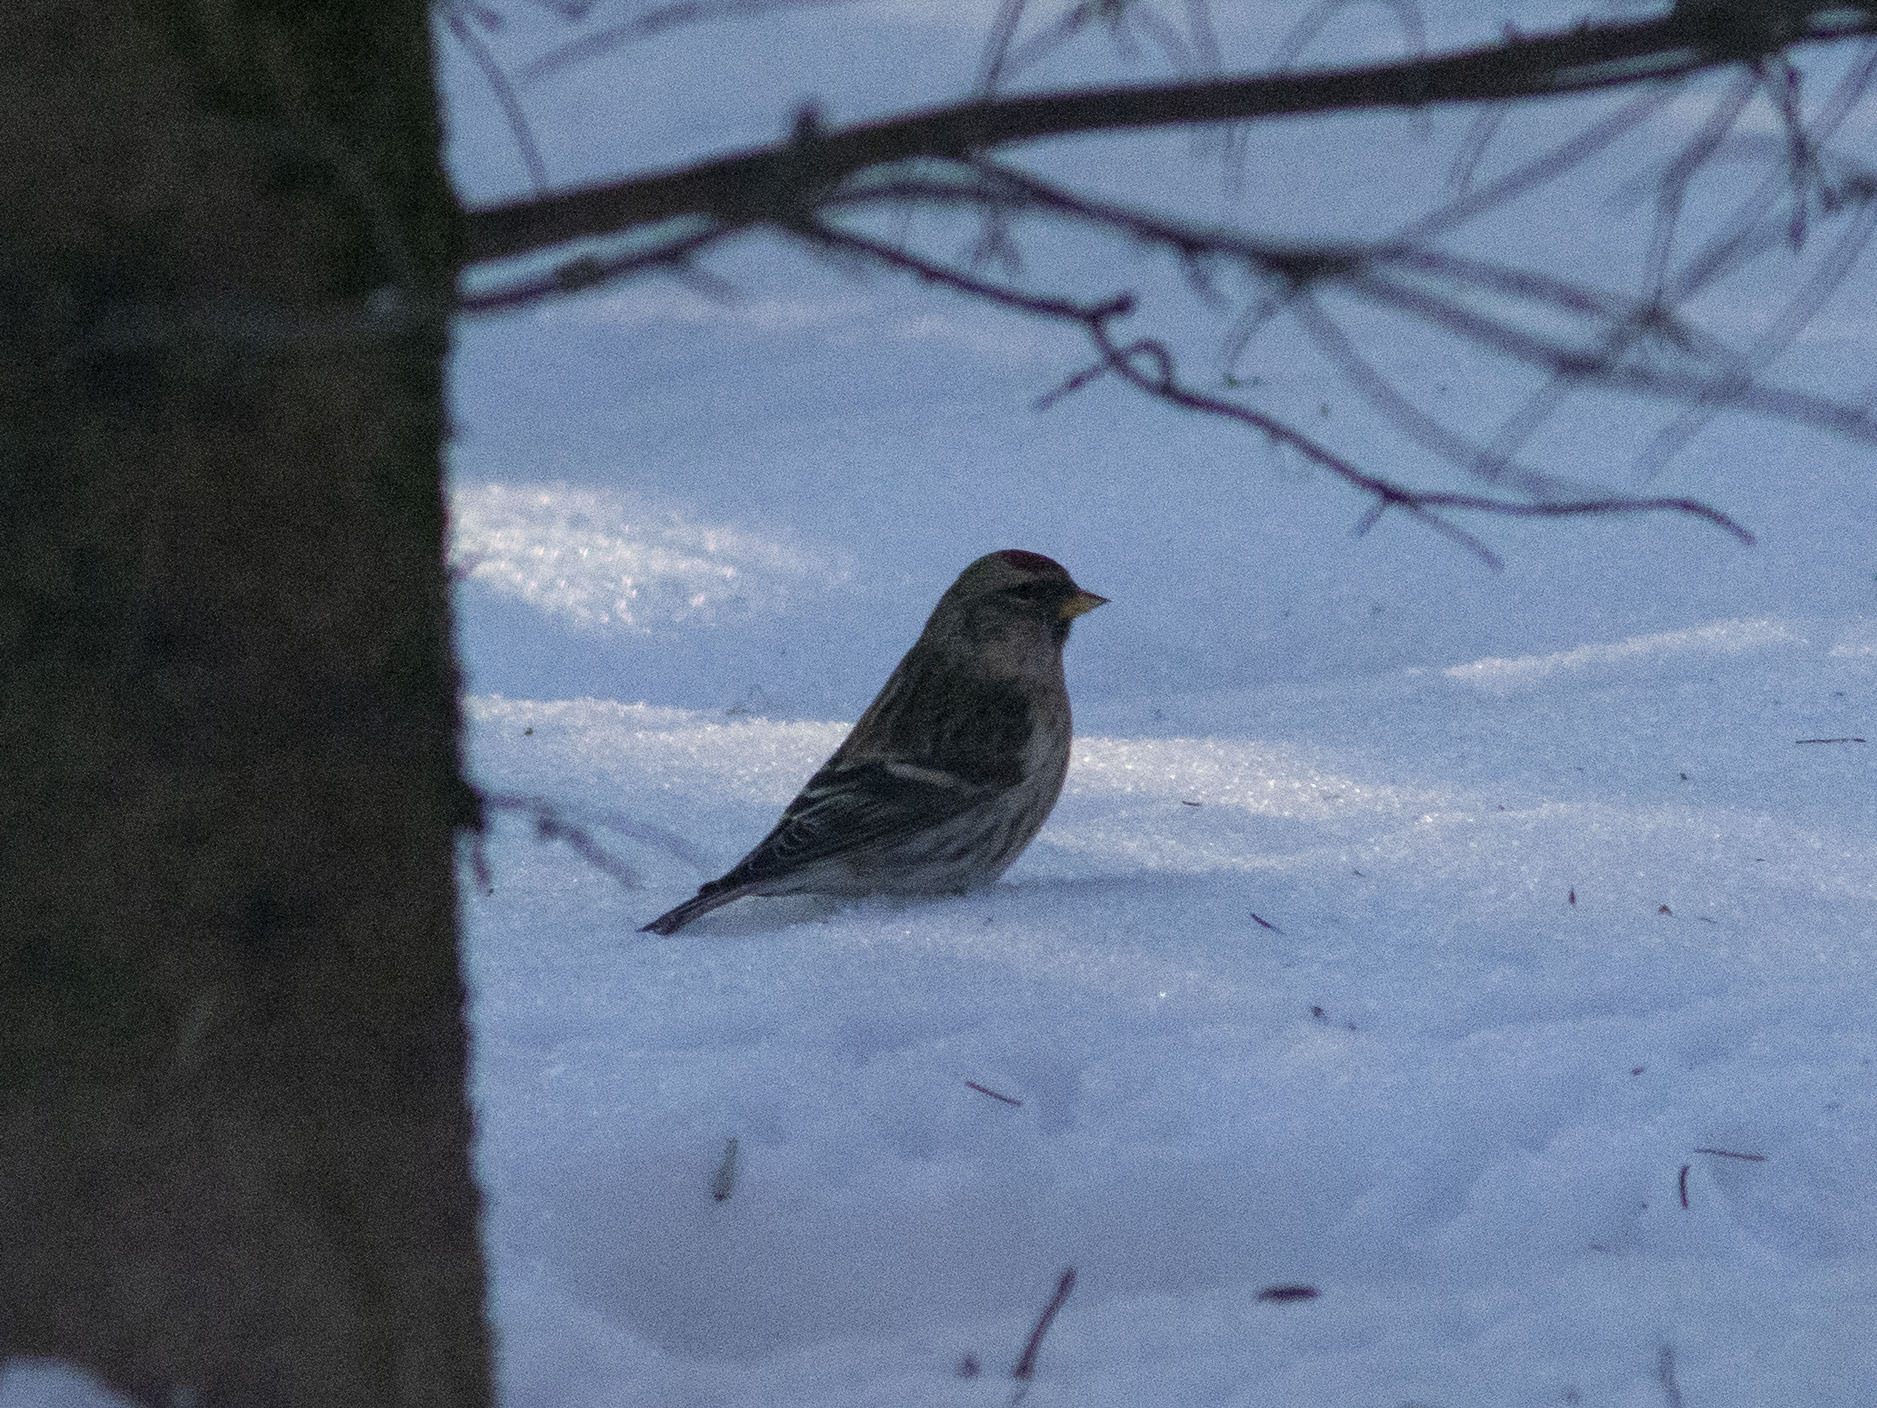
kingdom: Animalia
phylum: Chordata
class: Aves
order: Passeriformes
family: Fringillidae
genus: Acanthis
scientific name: Acanthis flammea
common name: Common redpoll
